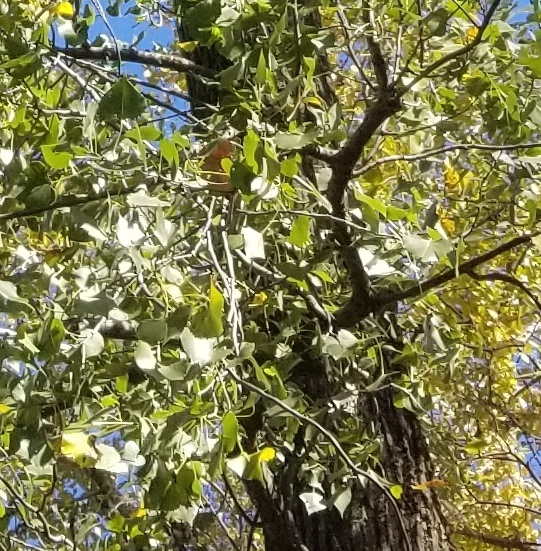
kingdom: Plantae
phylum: Tracheophyta
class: Magnoliopsida
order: Malpighiales
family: Salicaceae
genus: Populus
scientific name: Populus deltoides
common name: Eastern cottonwood
